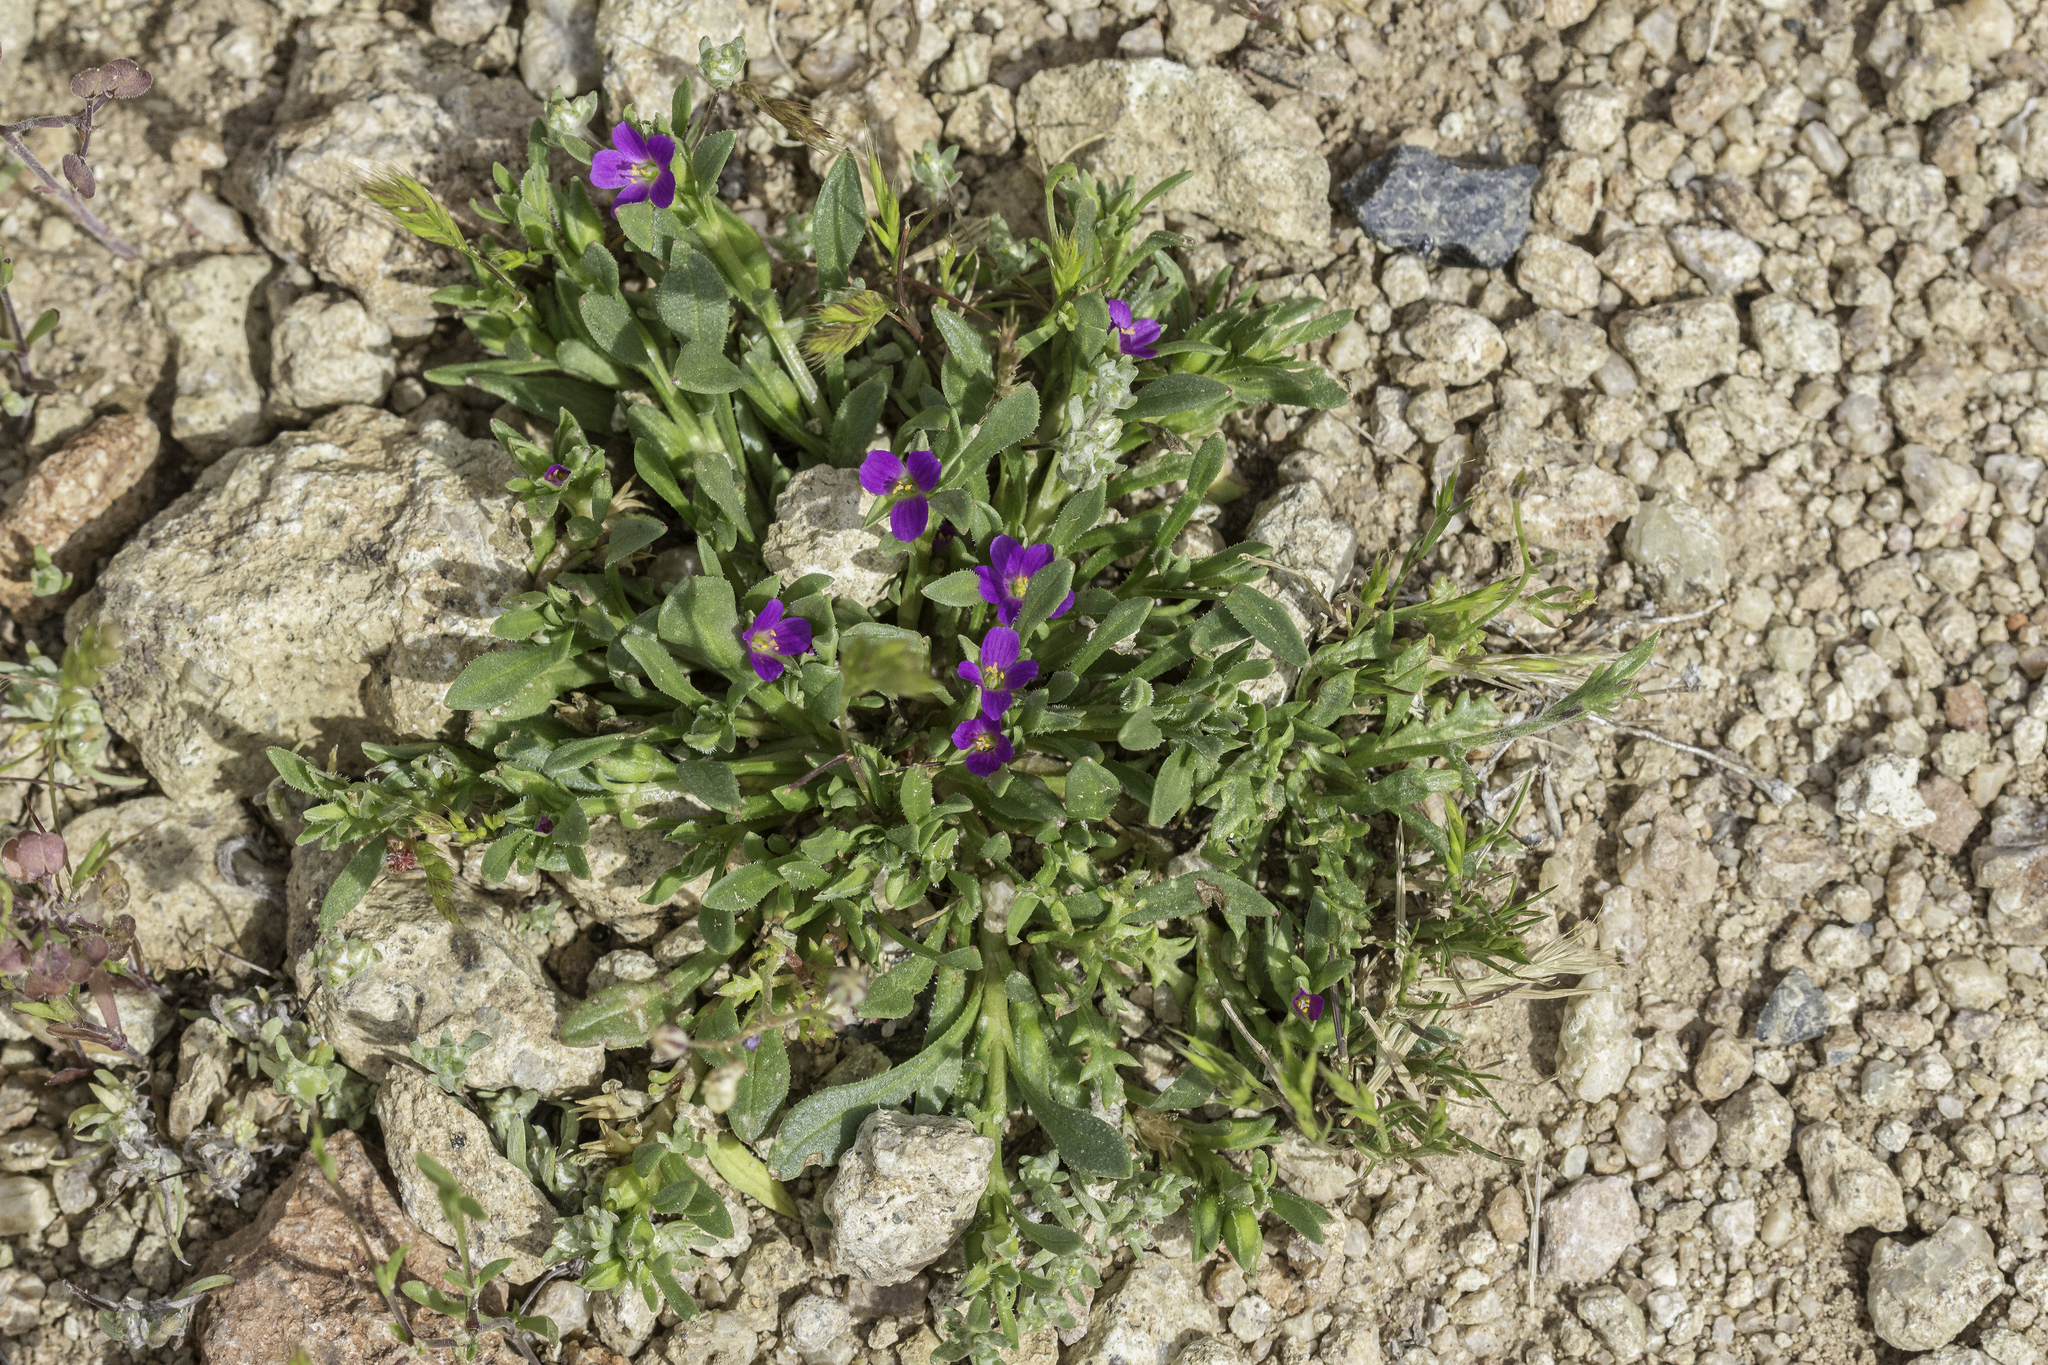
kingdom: Plantae
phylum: Tracheophyta
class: Magnoliopsida
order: Caryophyllales
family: Montiaceae
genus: Calandrinia
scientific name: Calandrinia menziesii
